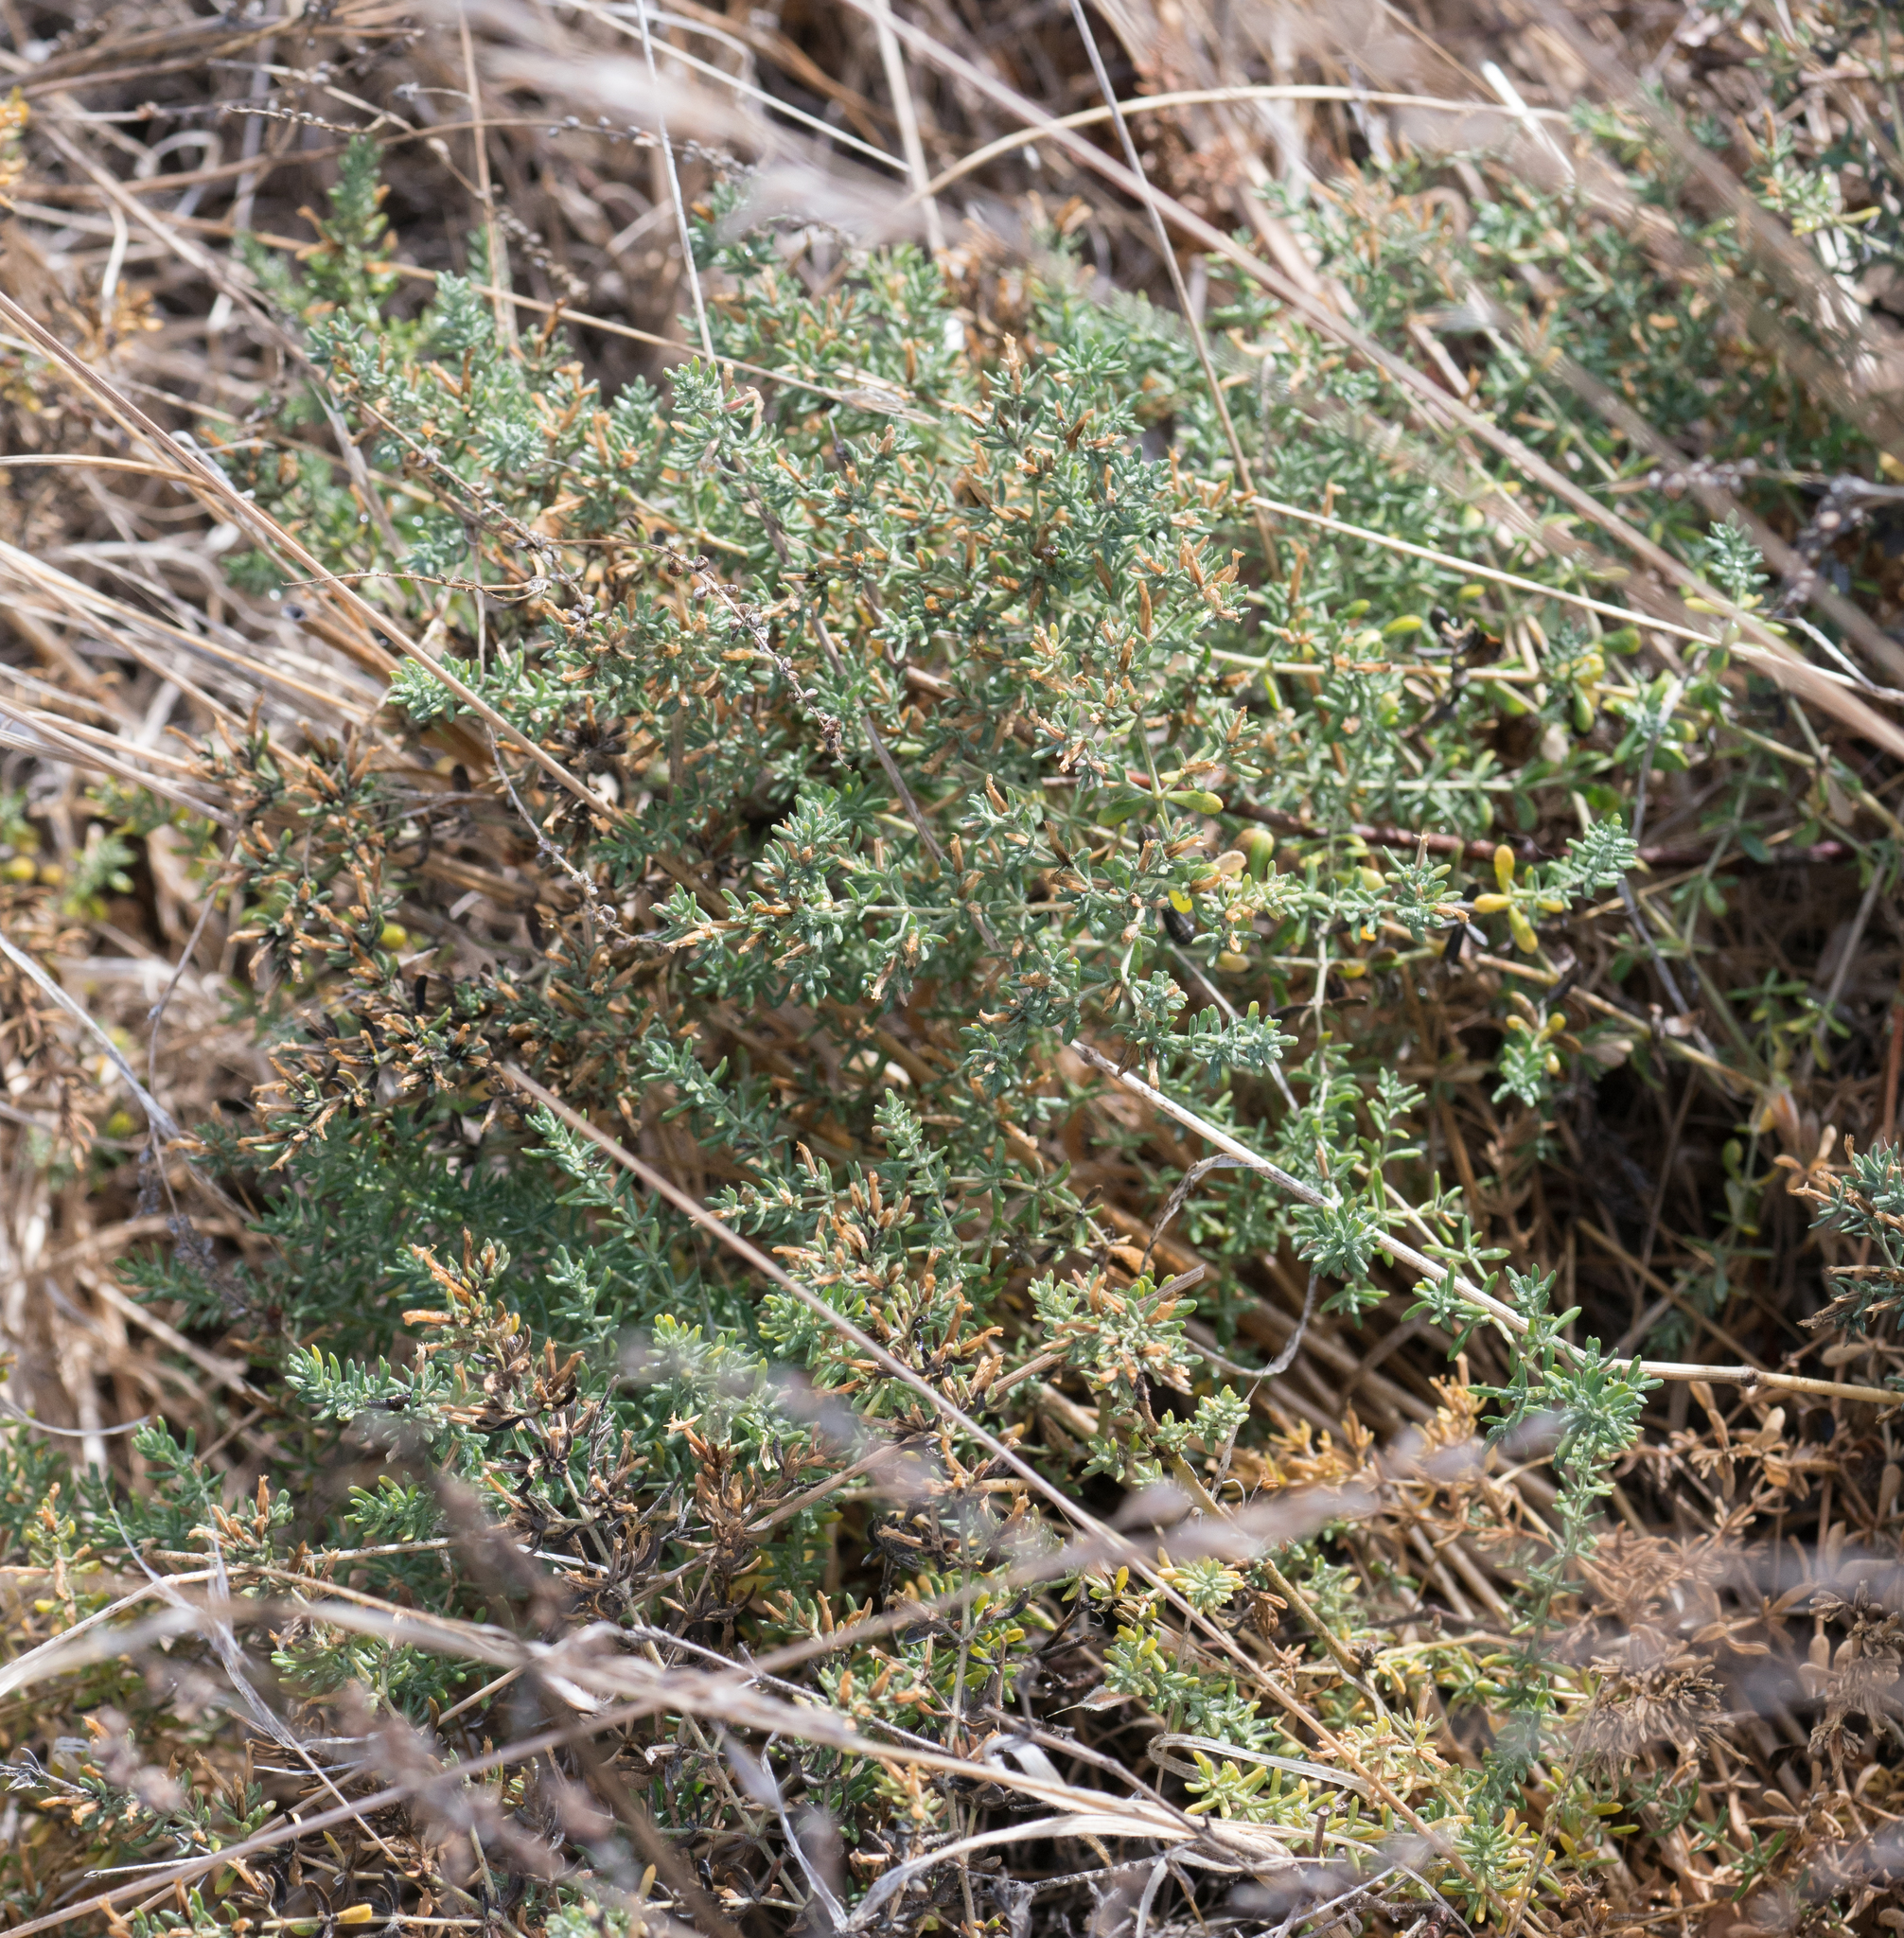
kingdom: Plantae
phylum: Tracheophyta
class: Magnoliopsida
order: Caryophyllales
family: Frankeniaceae
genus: Frankenia
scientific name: Frankenia salina
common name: Alkali seaheath
